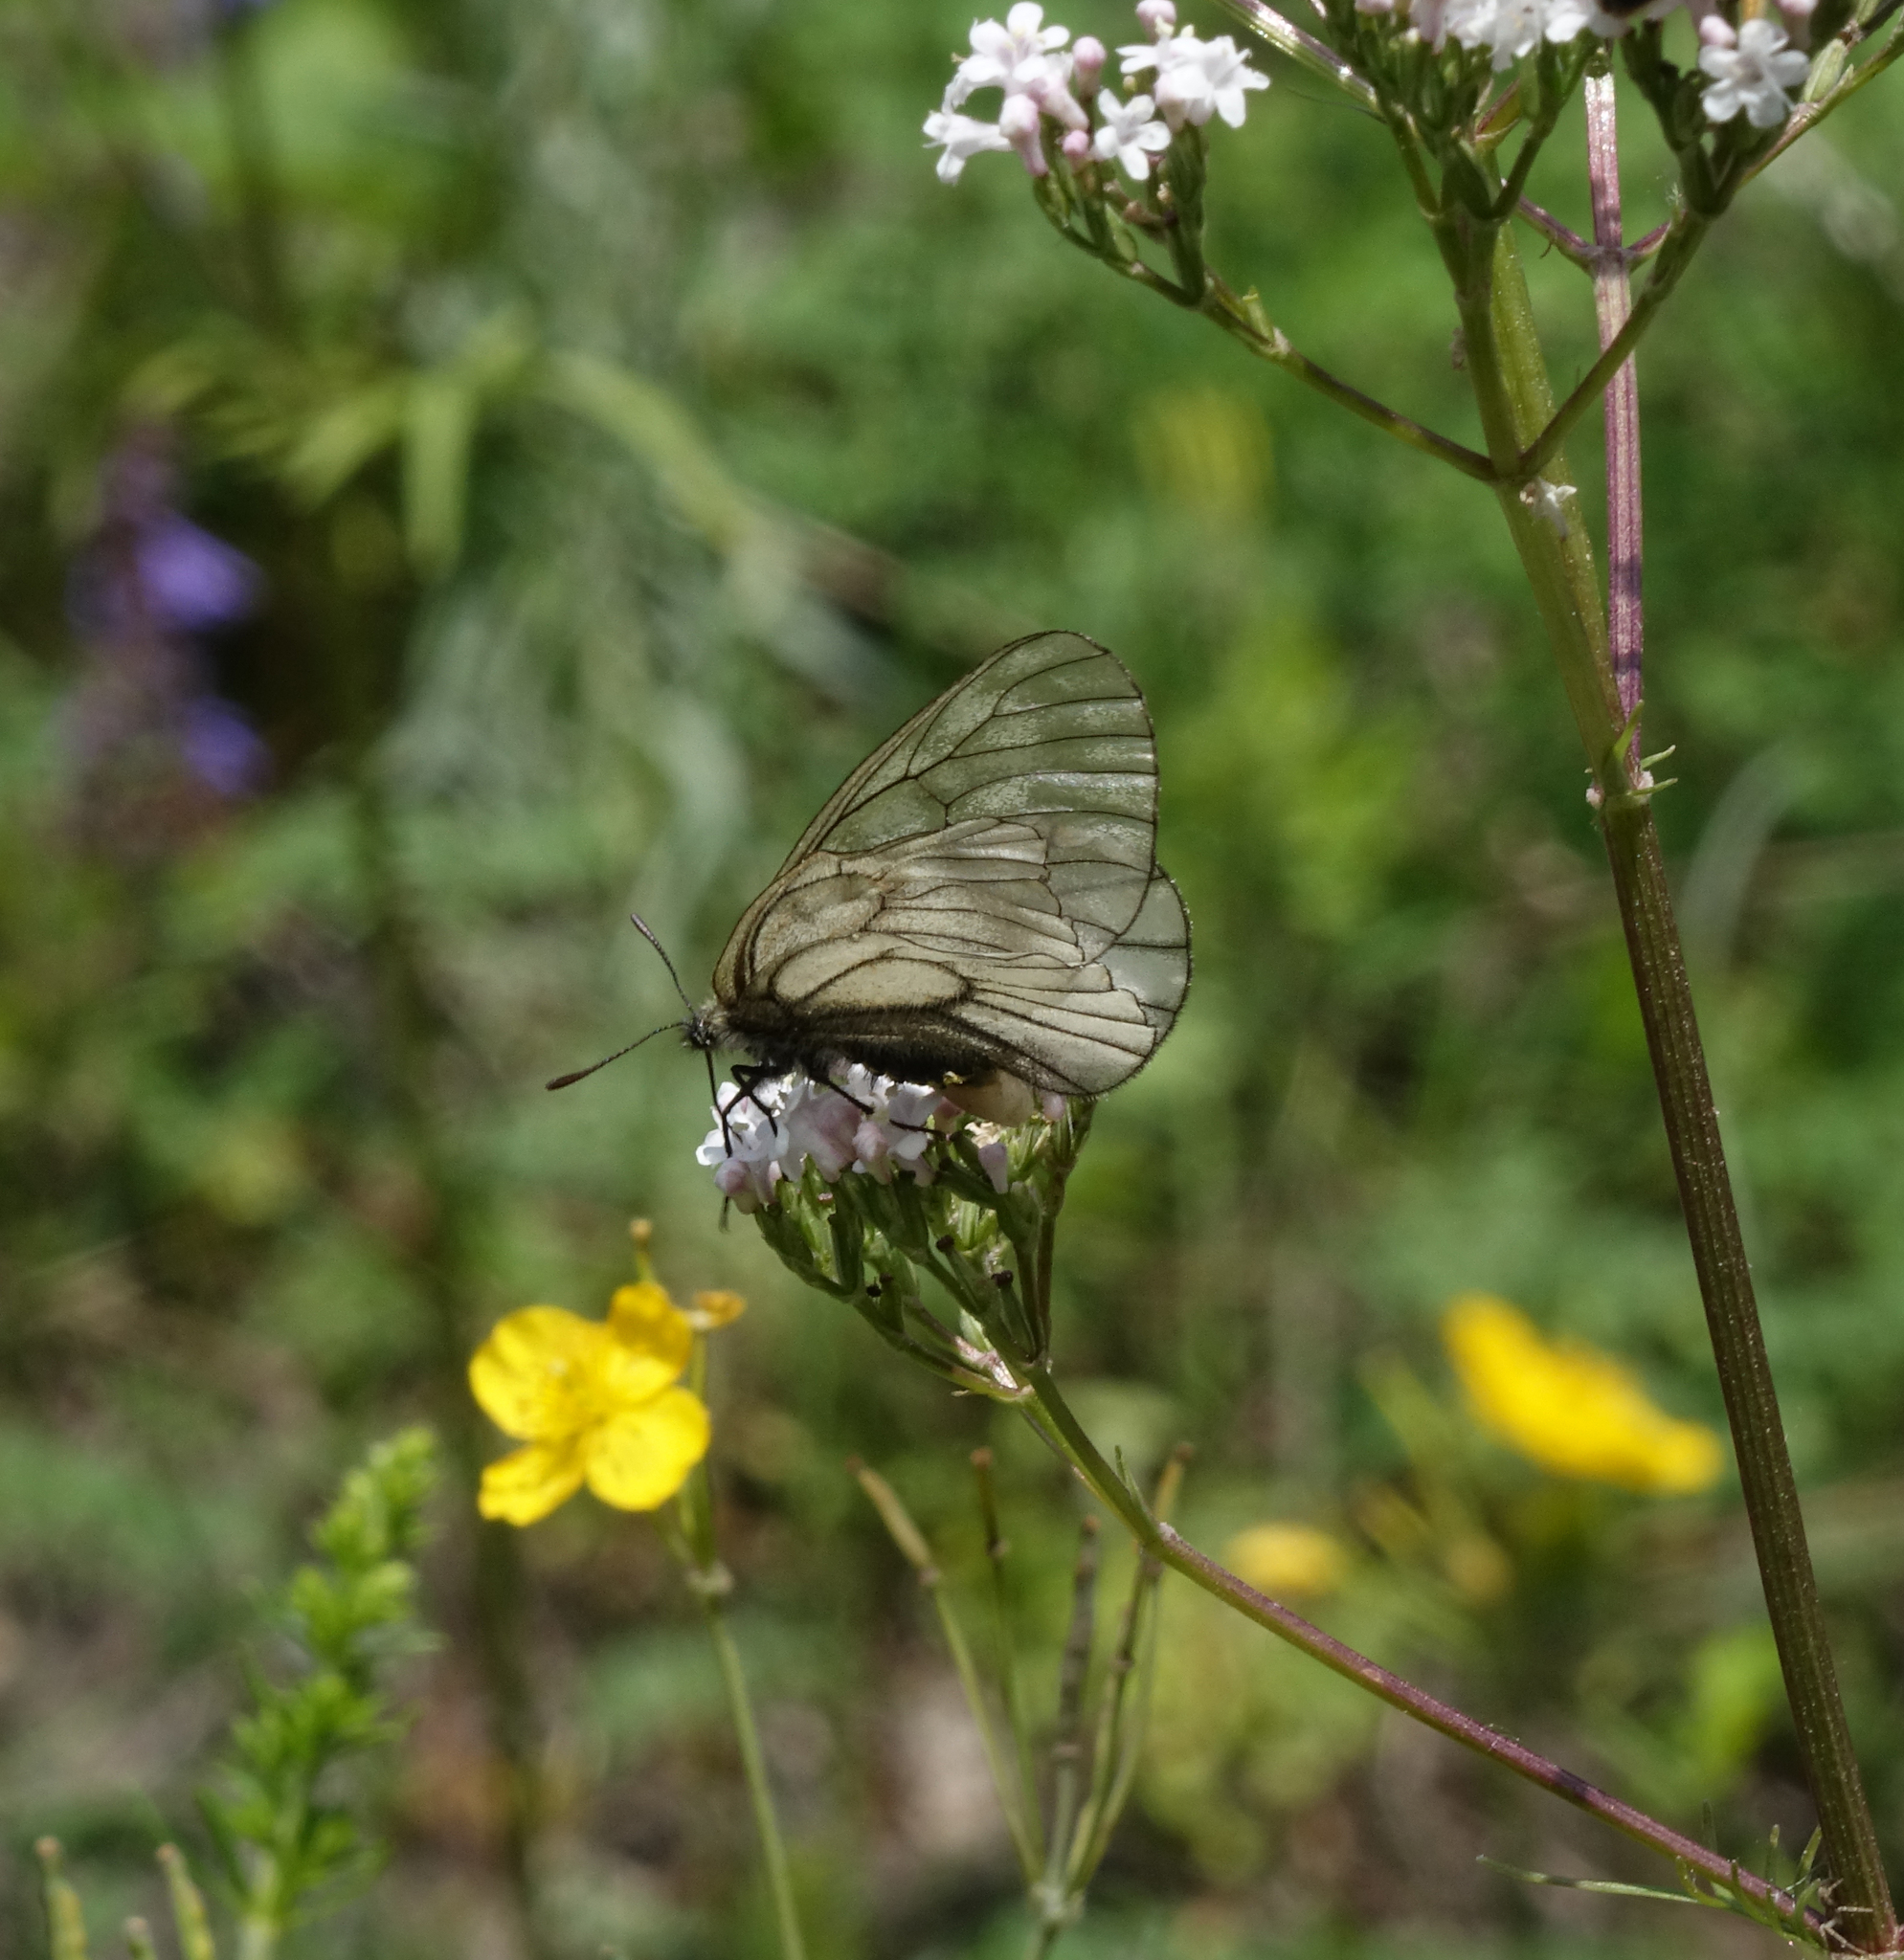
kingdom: Animalia
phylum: Arthropoda
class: Insecta
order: Lepidoptera
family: Papilionidae
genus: Parnassius
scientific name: Parnassius stubbendorfii
